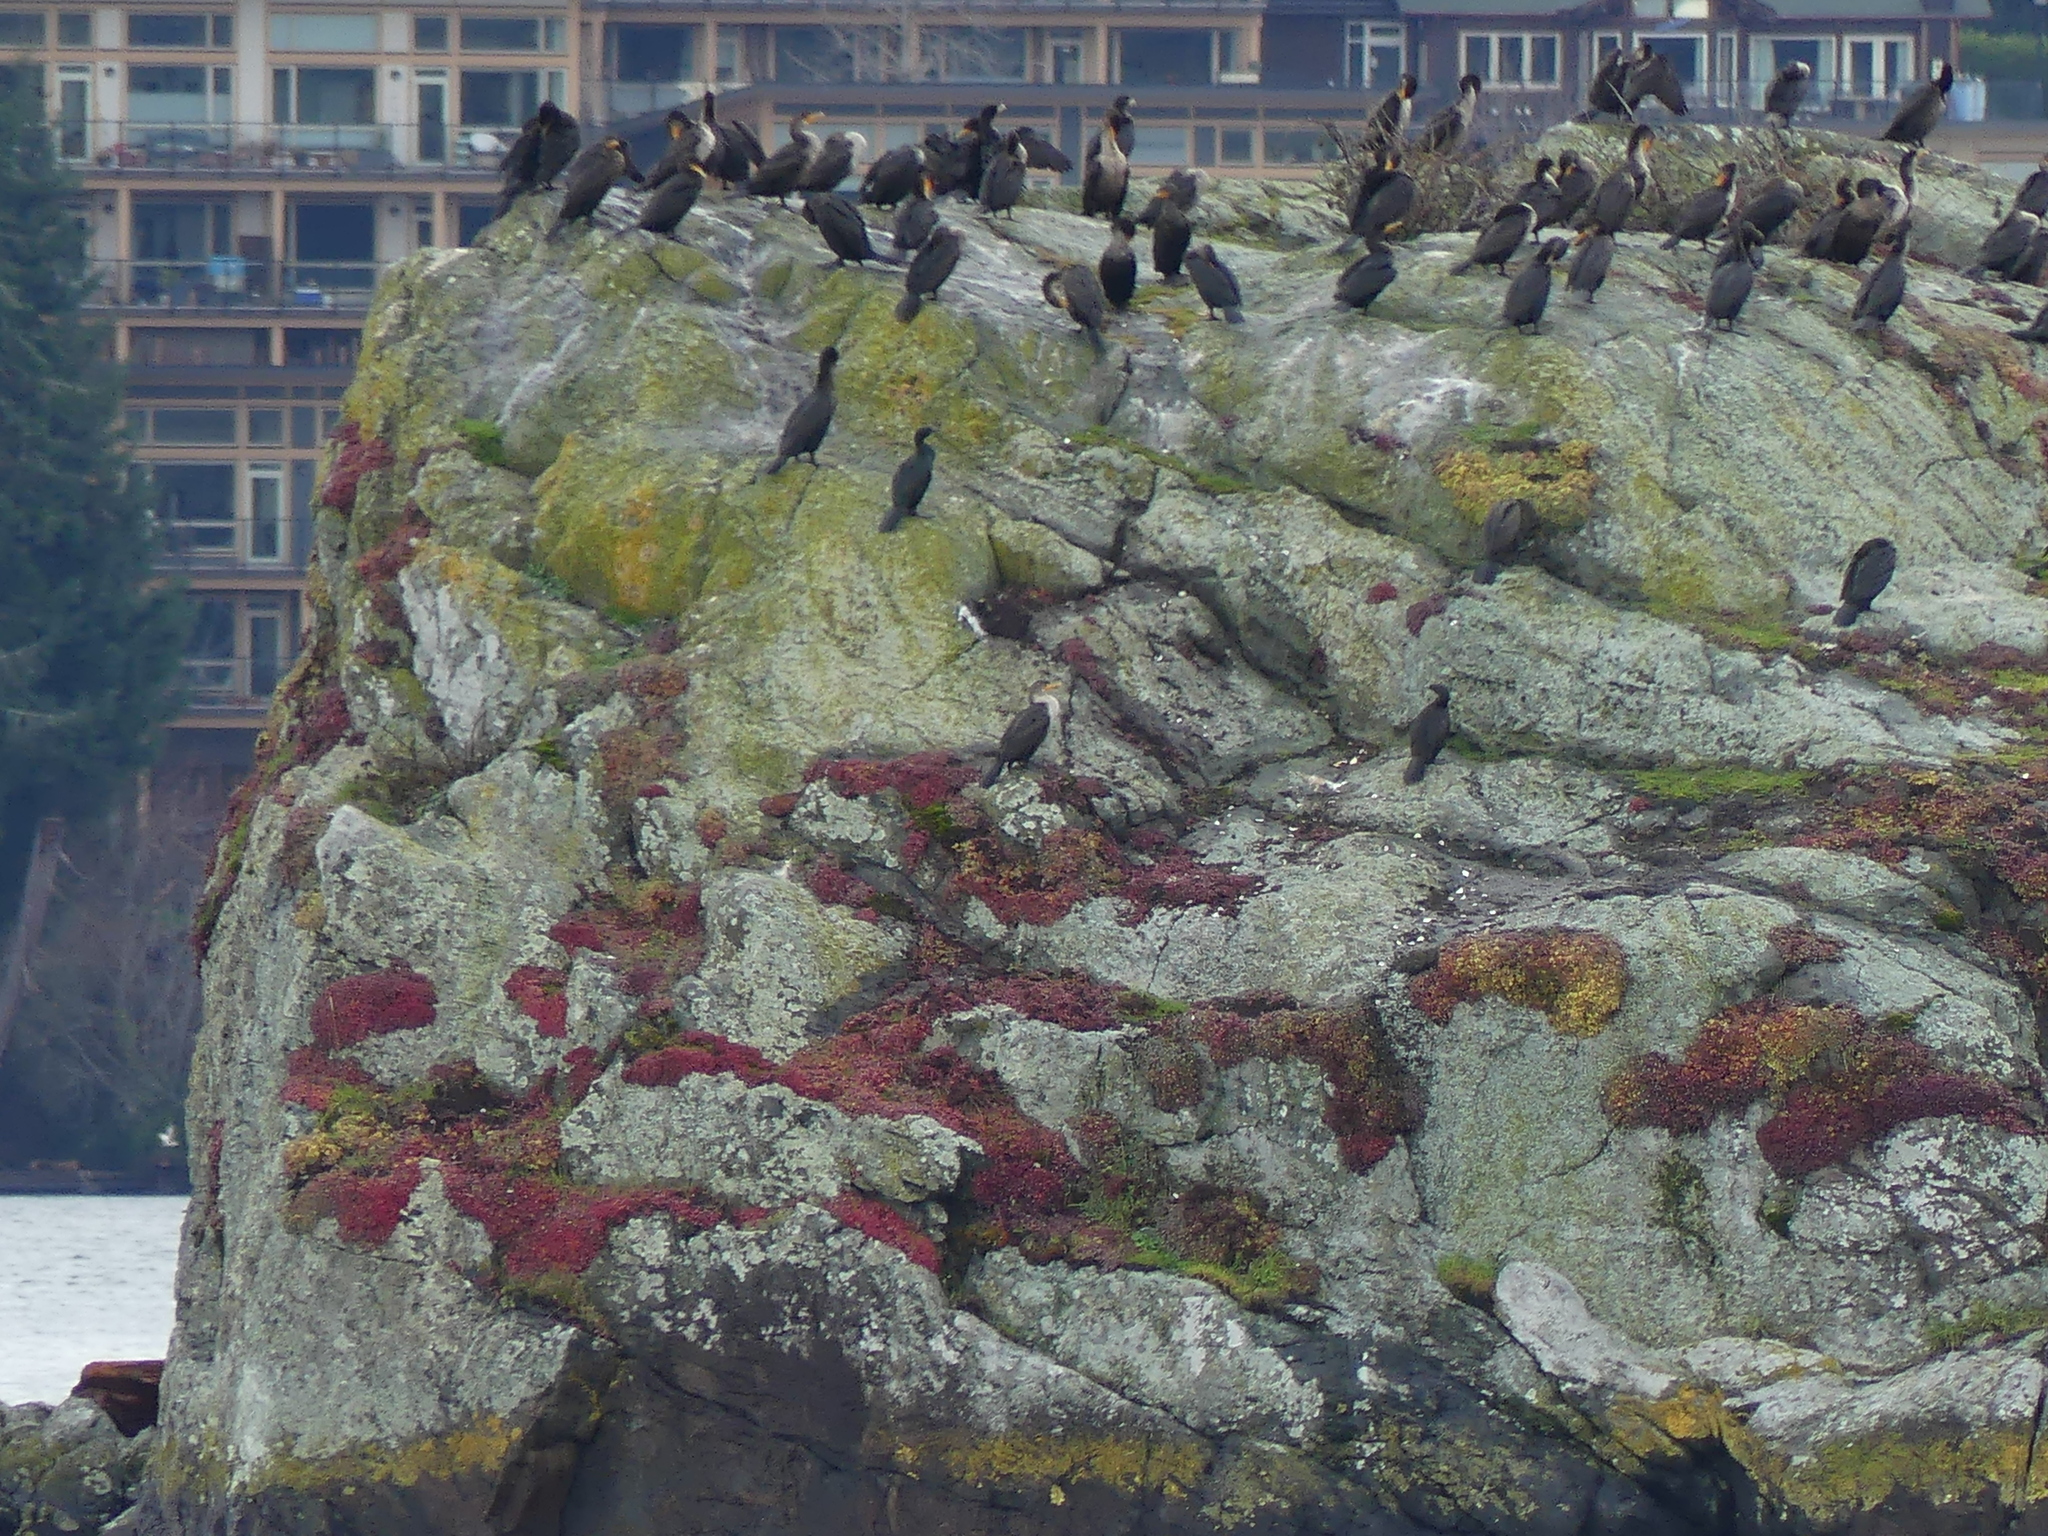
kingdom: Animalia
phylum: Chordata
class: Aves
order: Suliformes
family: Phalacrocoracidae
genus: Phalacrocorax
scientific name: Phalacrocorax auritus
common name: Double-crested cormorant
